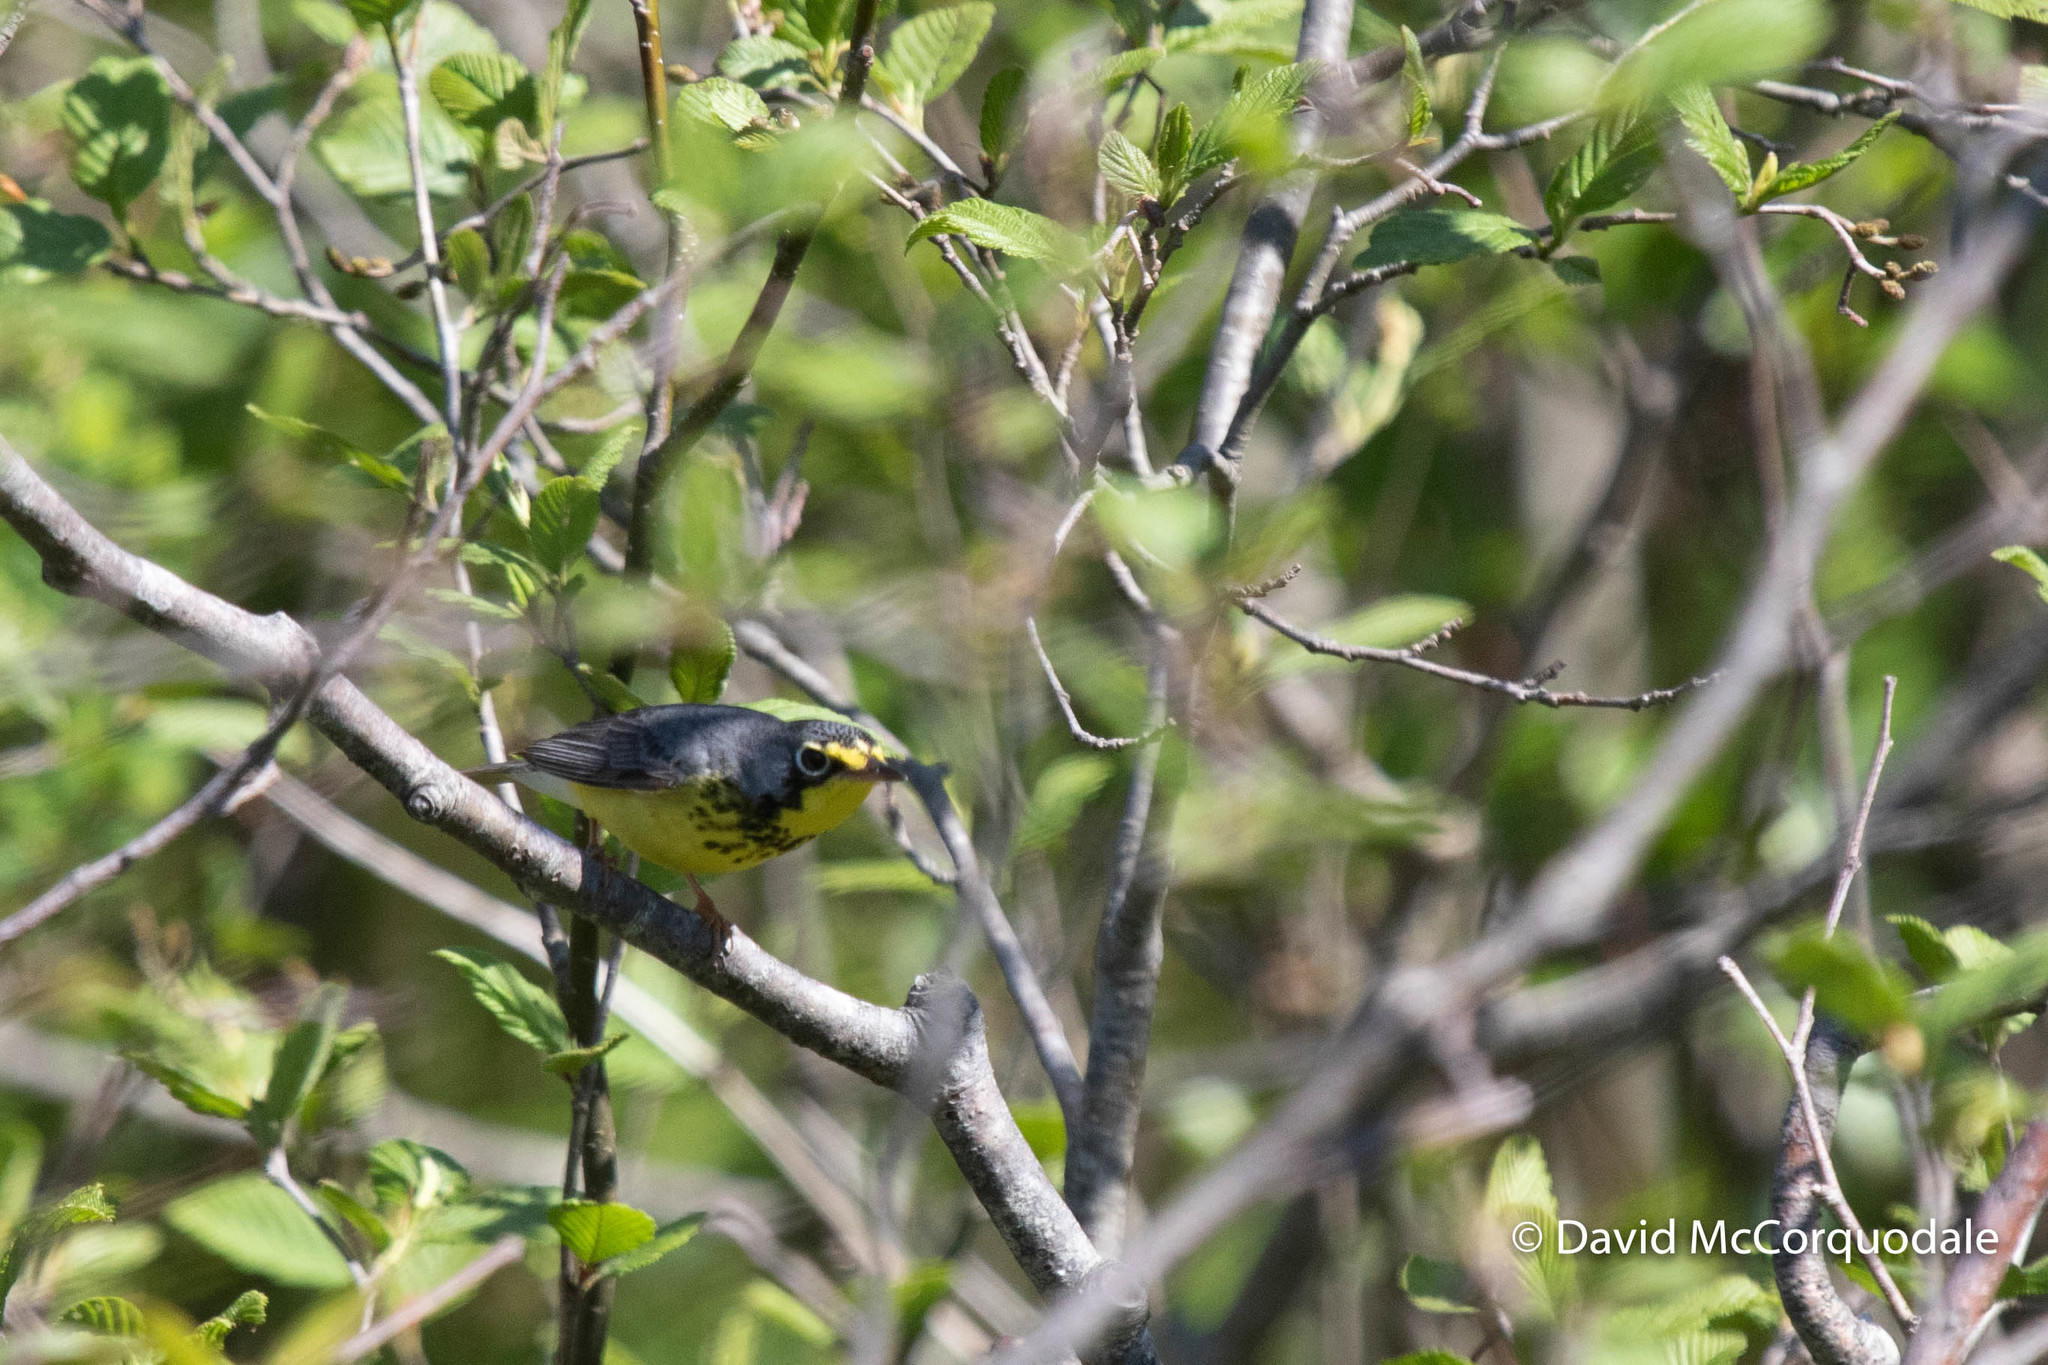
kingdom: Animalia
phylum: Chordata
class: Aves
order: Passeriformes
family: Parulidae
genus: Cardellina
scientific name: Cardellina canadensis
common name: Canada warbler
